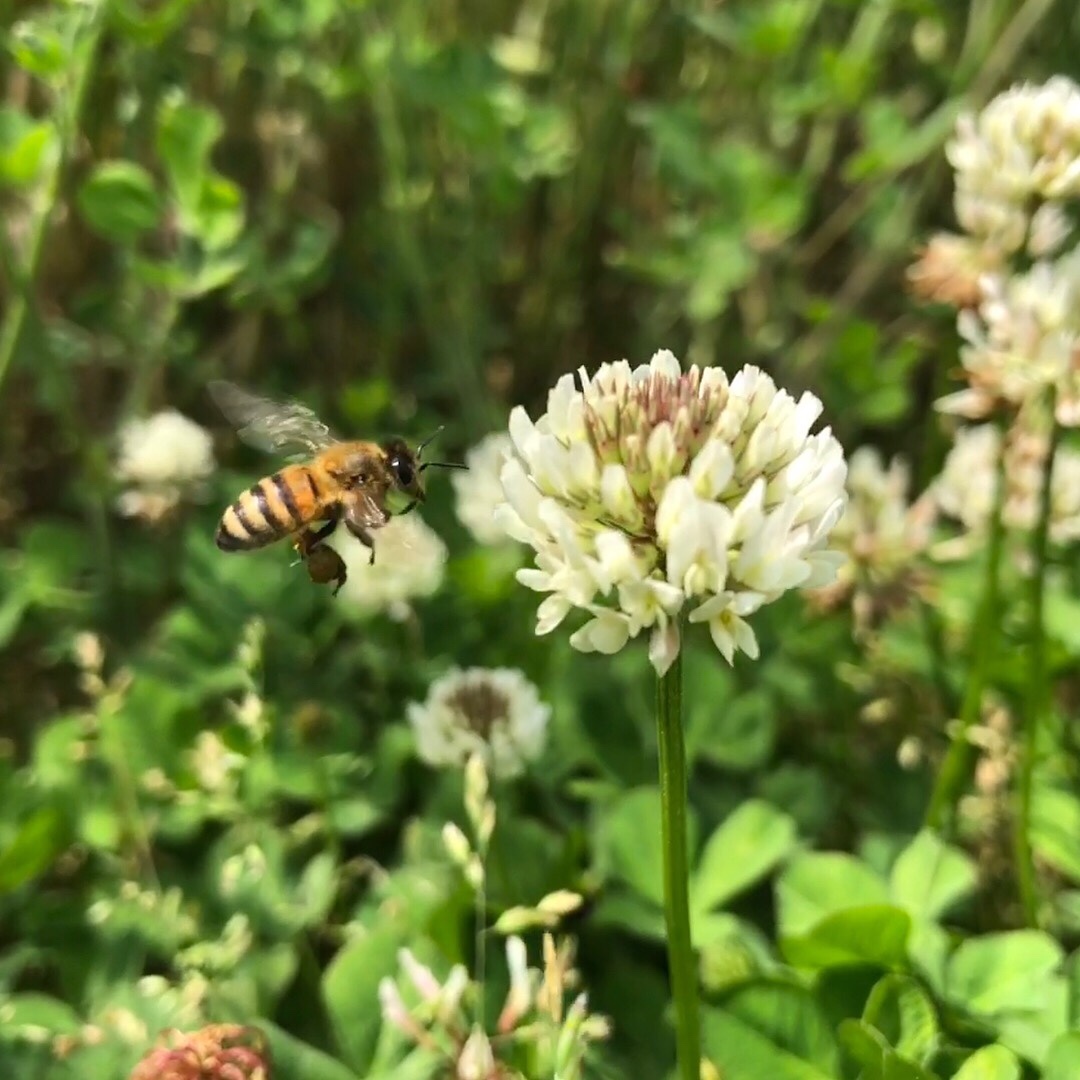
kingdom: Animalia
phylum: Arthropoda
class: Insecta
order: Hymenoptera
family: Apidae
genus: Apis
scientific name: Apis mellifera
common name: Honey bee
